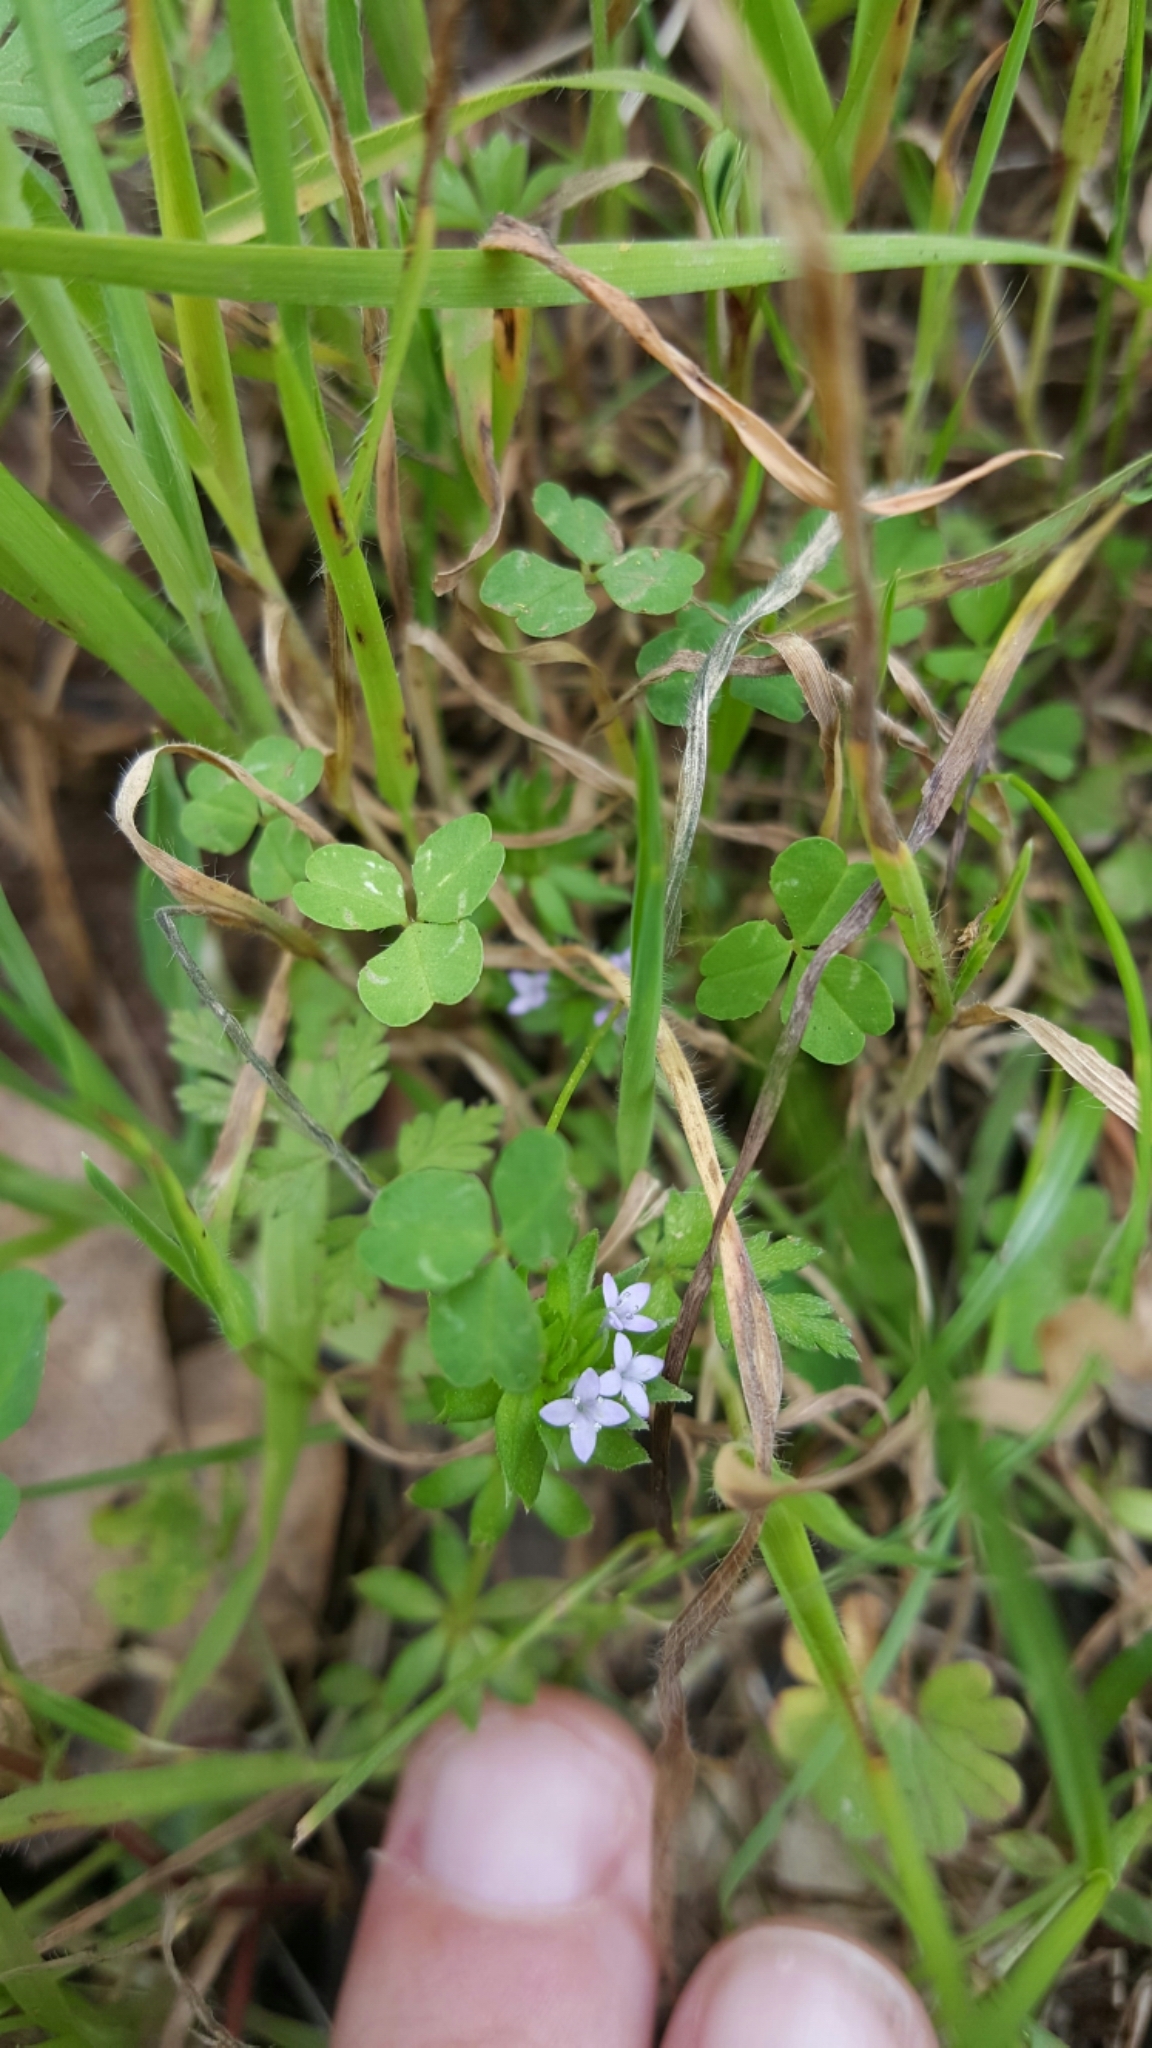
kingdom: Plantae
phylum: Tracheophyta
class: Magnoliopsida
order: Gentianales
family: Rubiaceae
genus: Sherardia
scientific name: Sherardia arvensis
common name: Field madder
